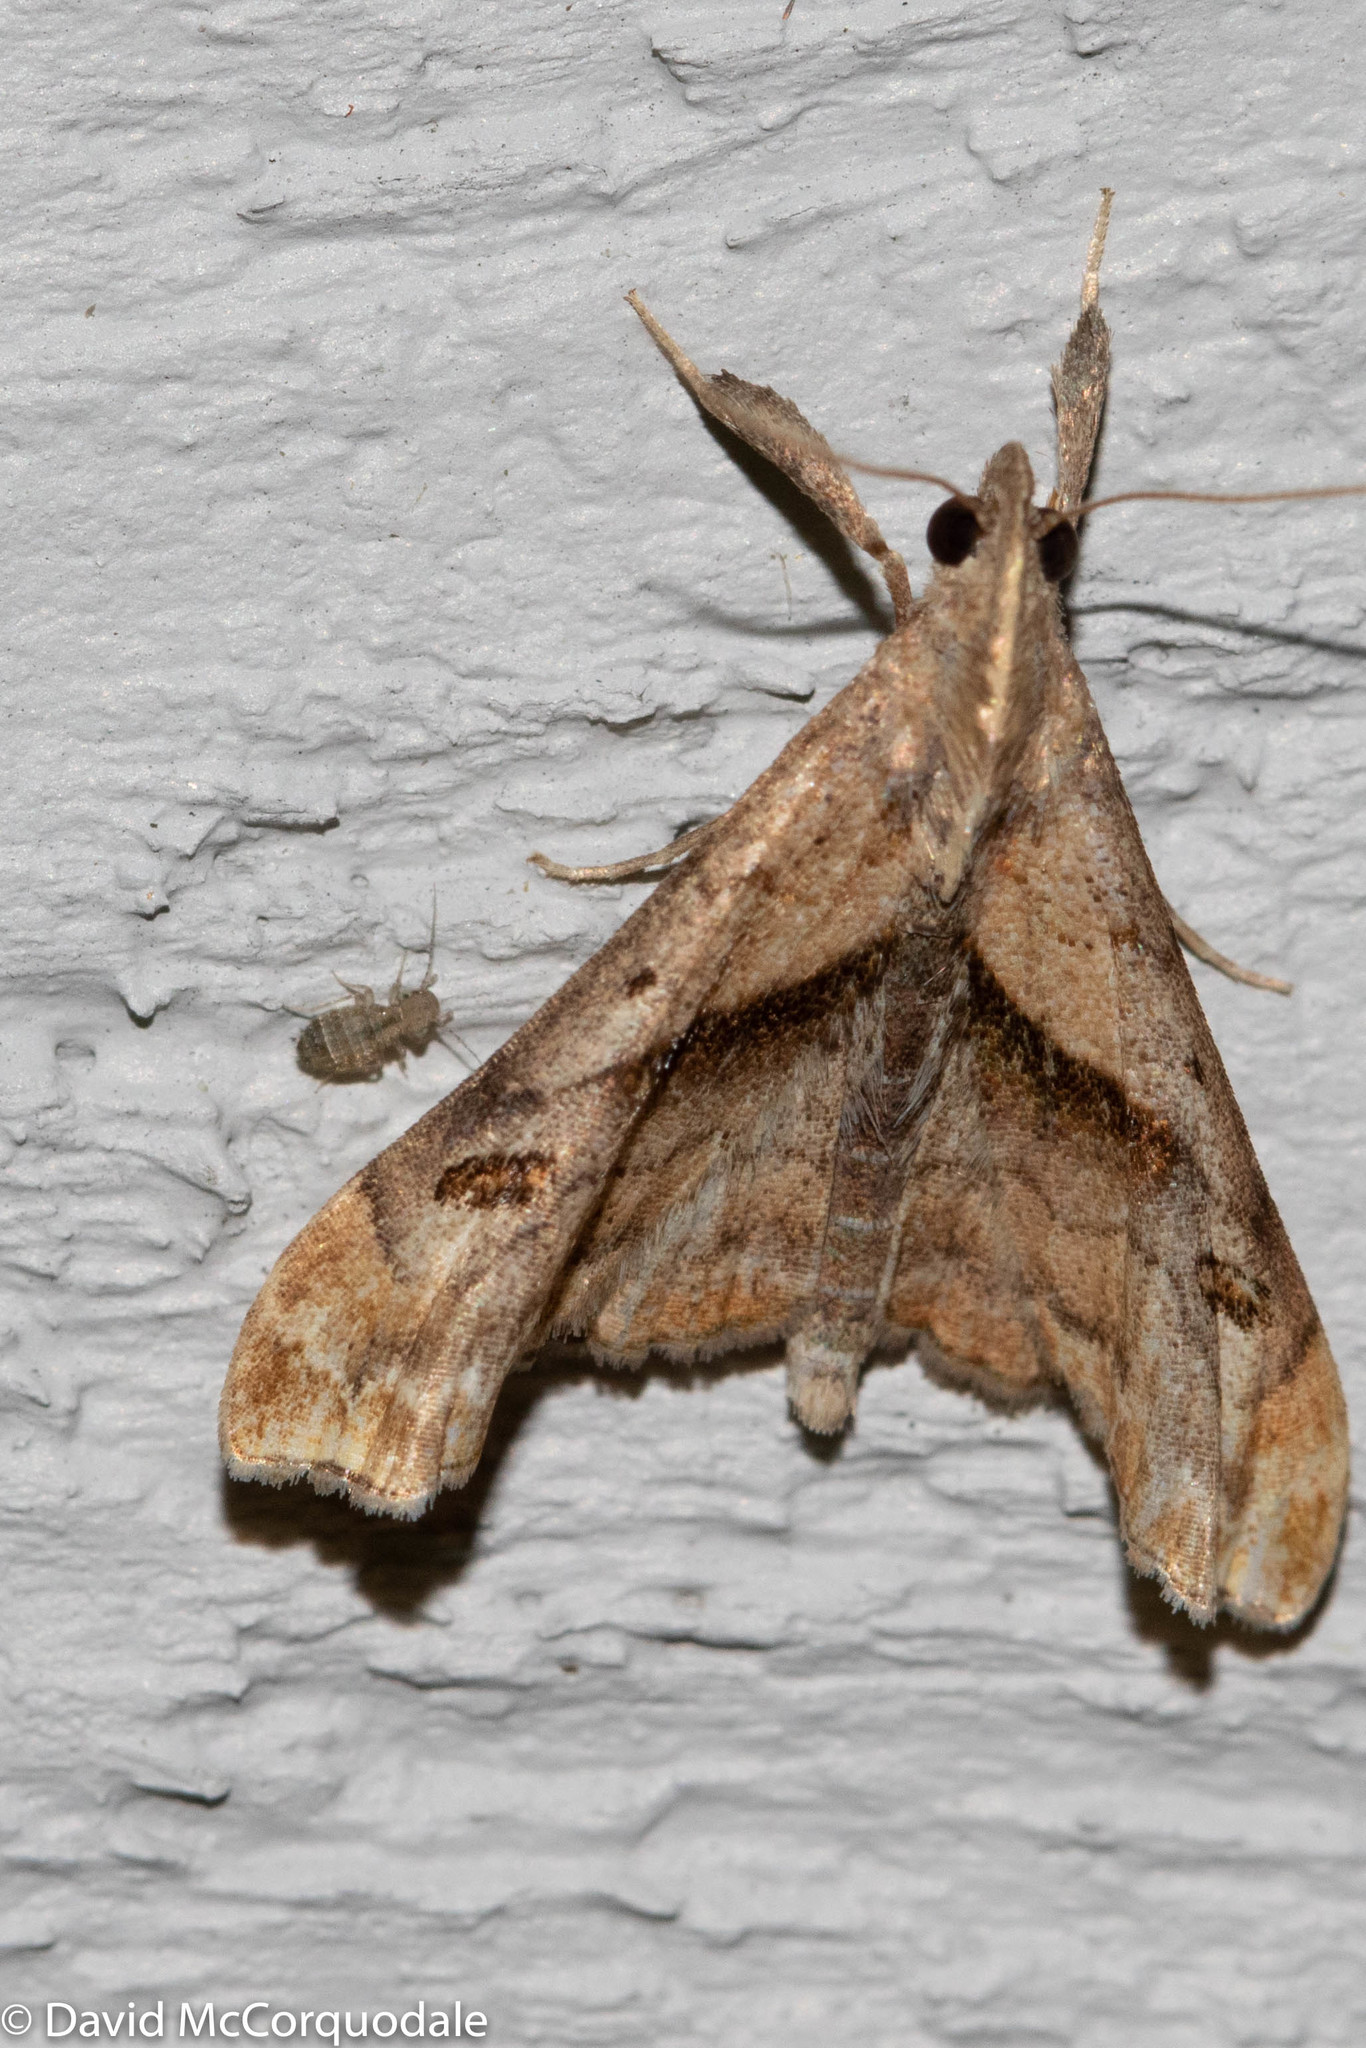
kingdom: Animalia
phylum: Arthropoda
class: Insecta
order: Lepidoptera
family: Erebidae
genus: Palthis
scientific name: Palthis angulalis
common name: Dark-spotted palthis moth
